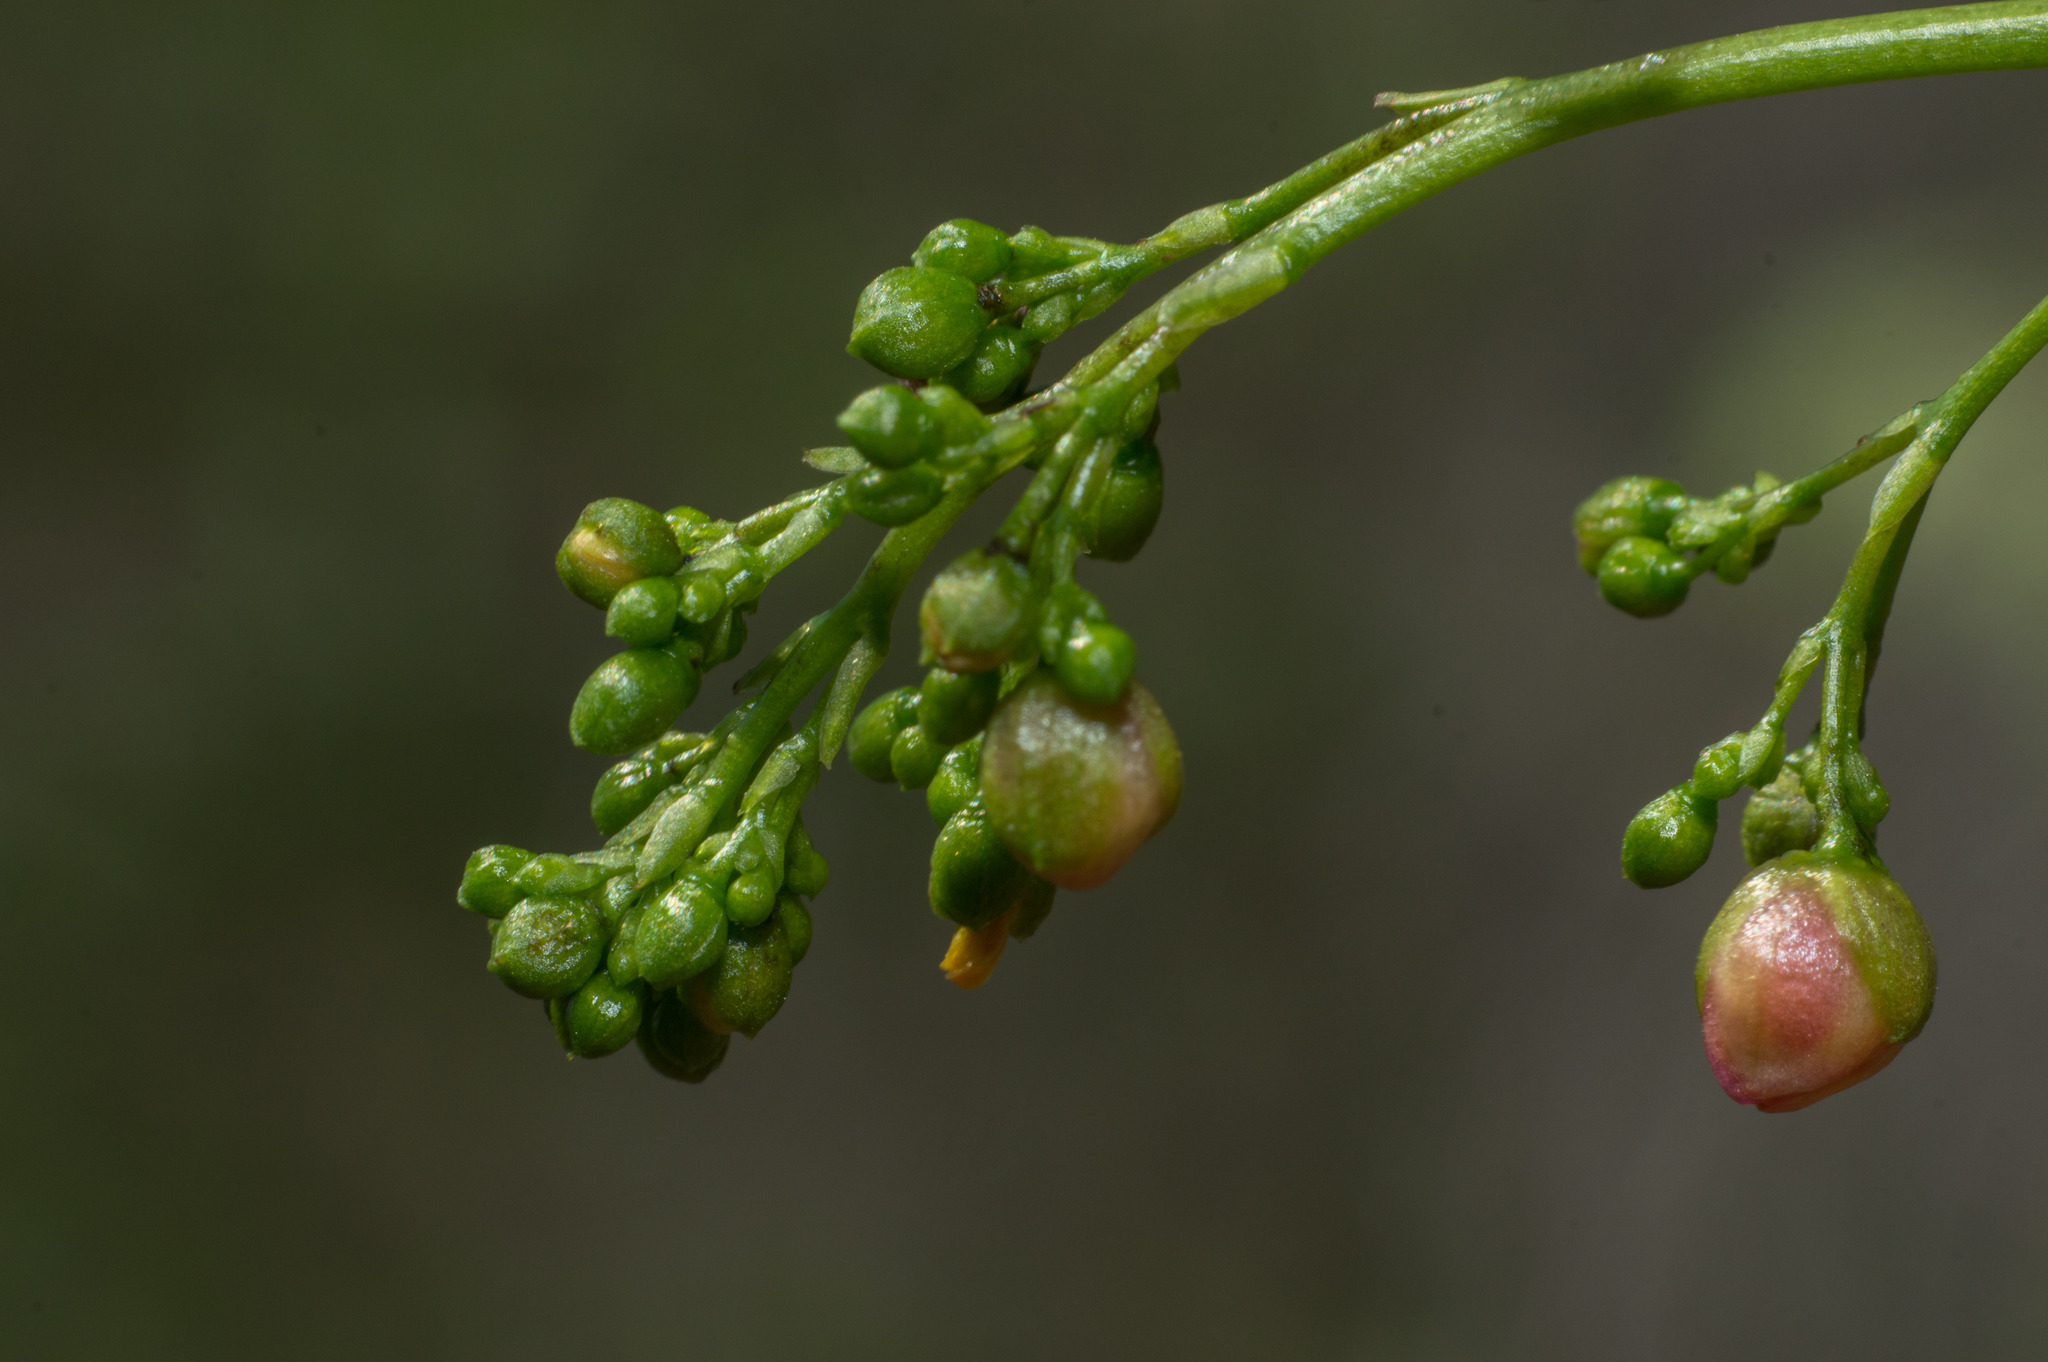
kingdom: Plantae
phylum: Tracheophyta
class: Magnoliopsida
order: Caryophyllales
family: Talinaceae
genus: Talinum
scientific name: Talinum paniculatum
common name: Jewels of opar
